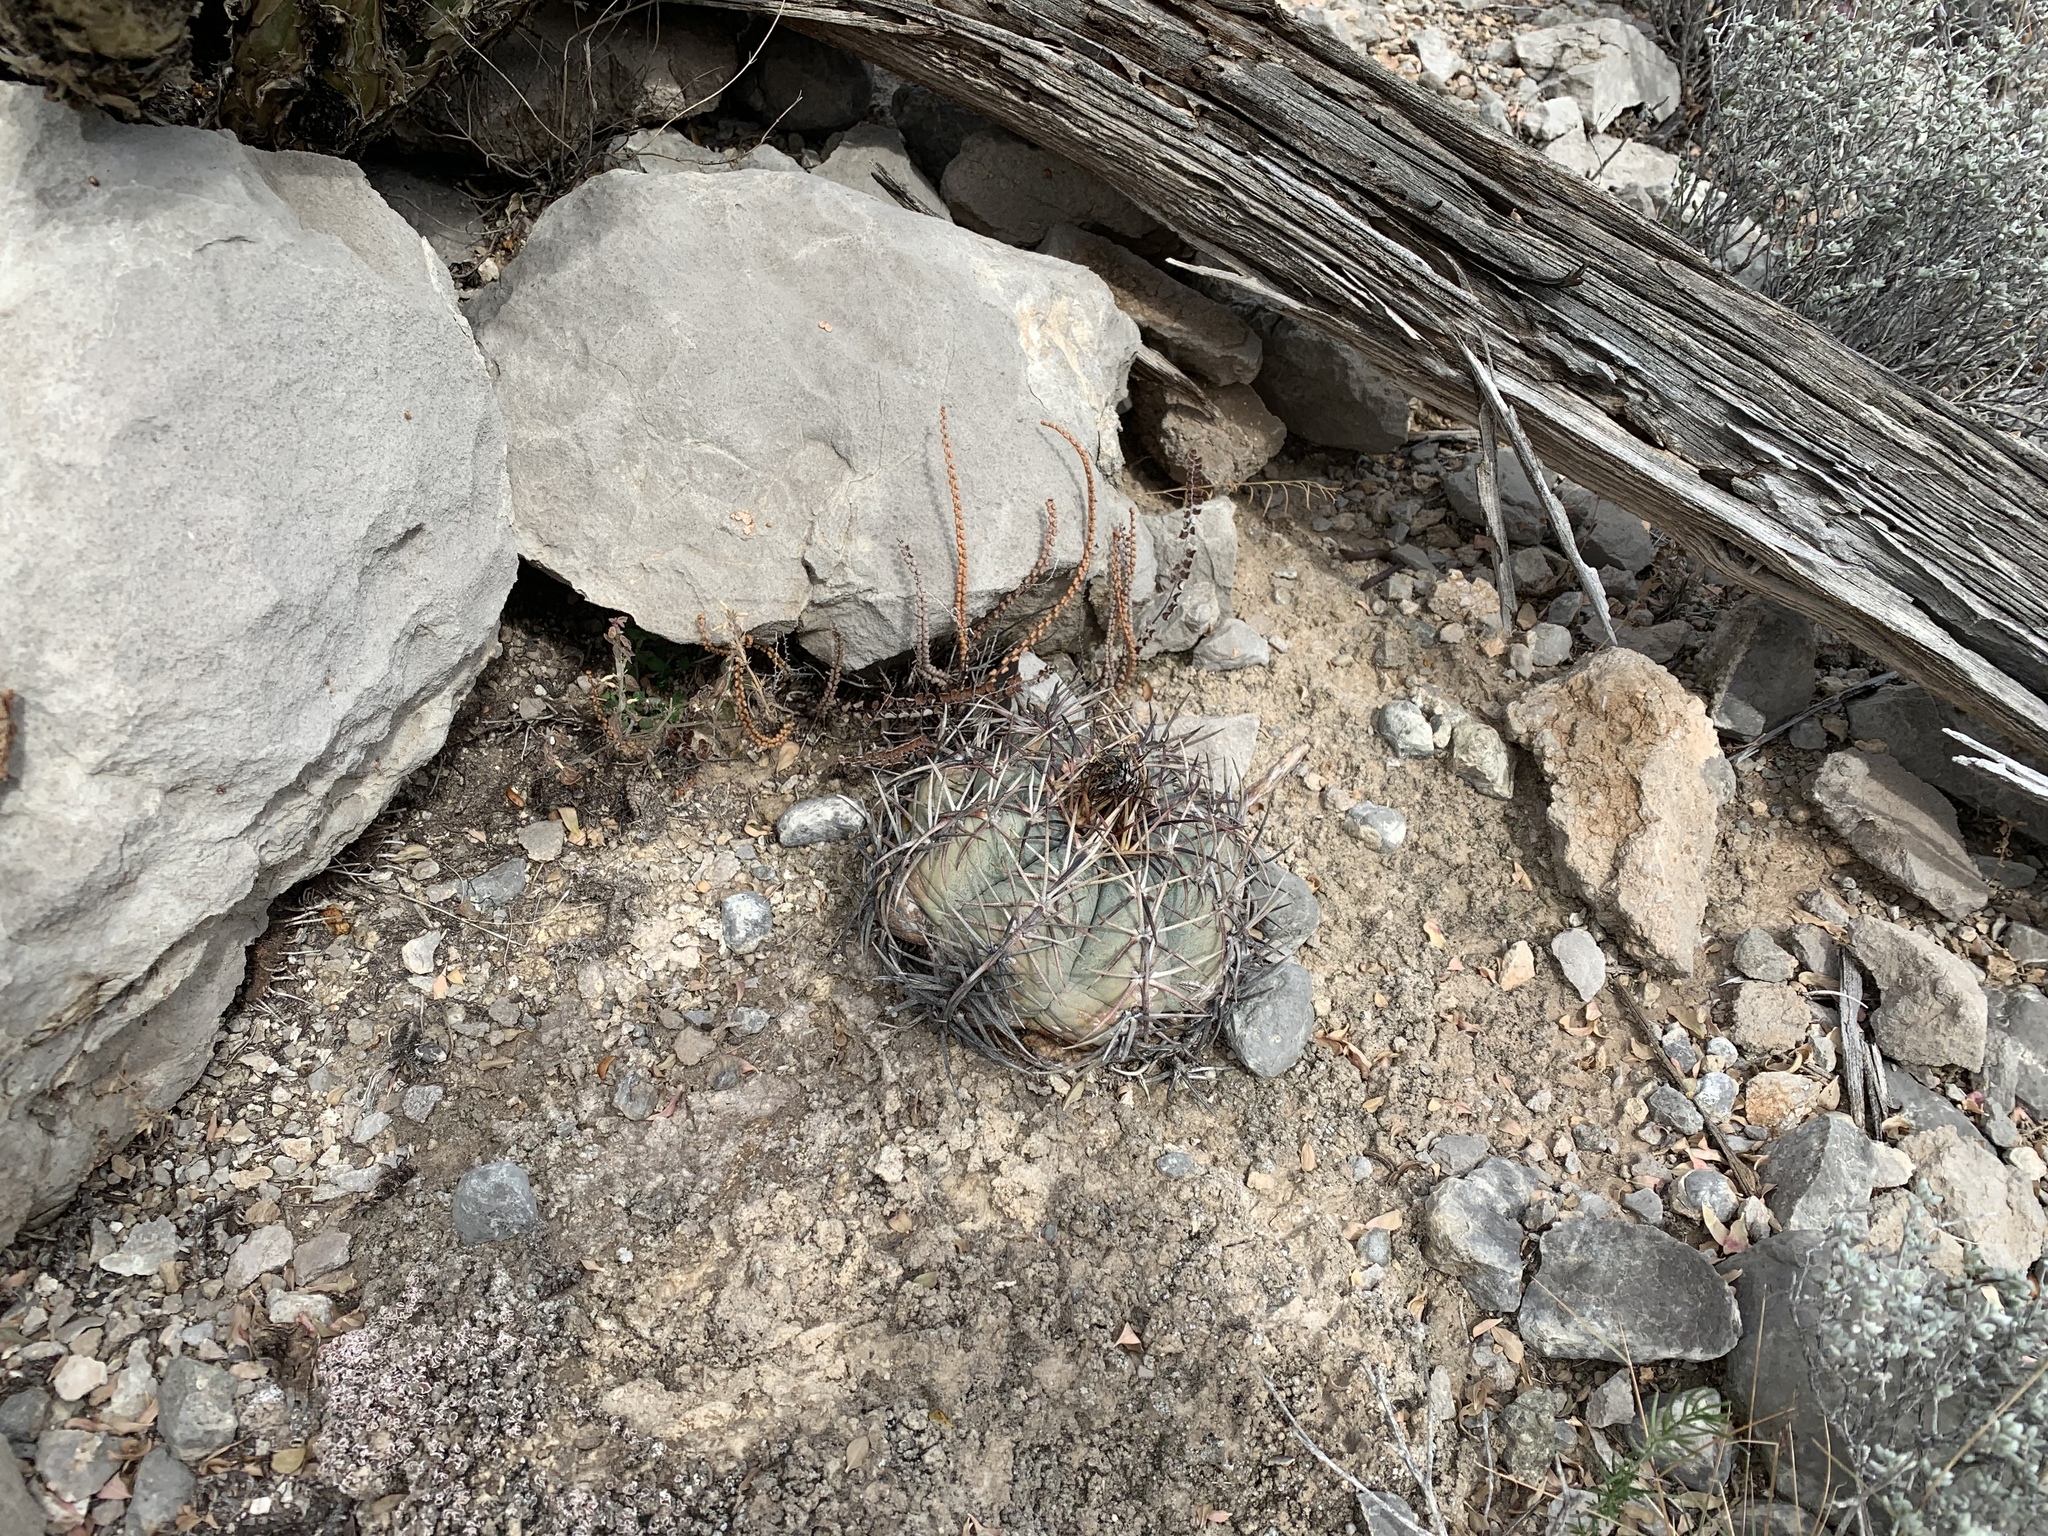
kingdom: Plantae
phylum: Tracheophyta
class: Magnoliopsida
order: Caryophyllales
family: Cactaceae
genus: Echinocactus
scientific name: Echinocactus horizonthalonius
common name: Devilshead
